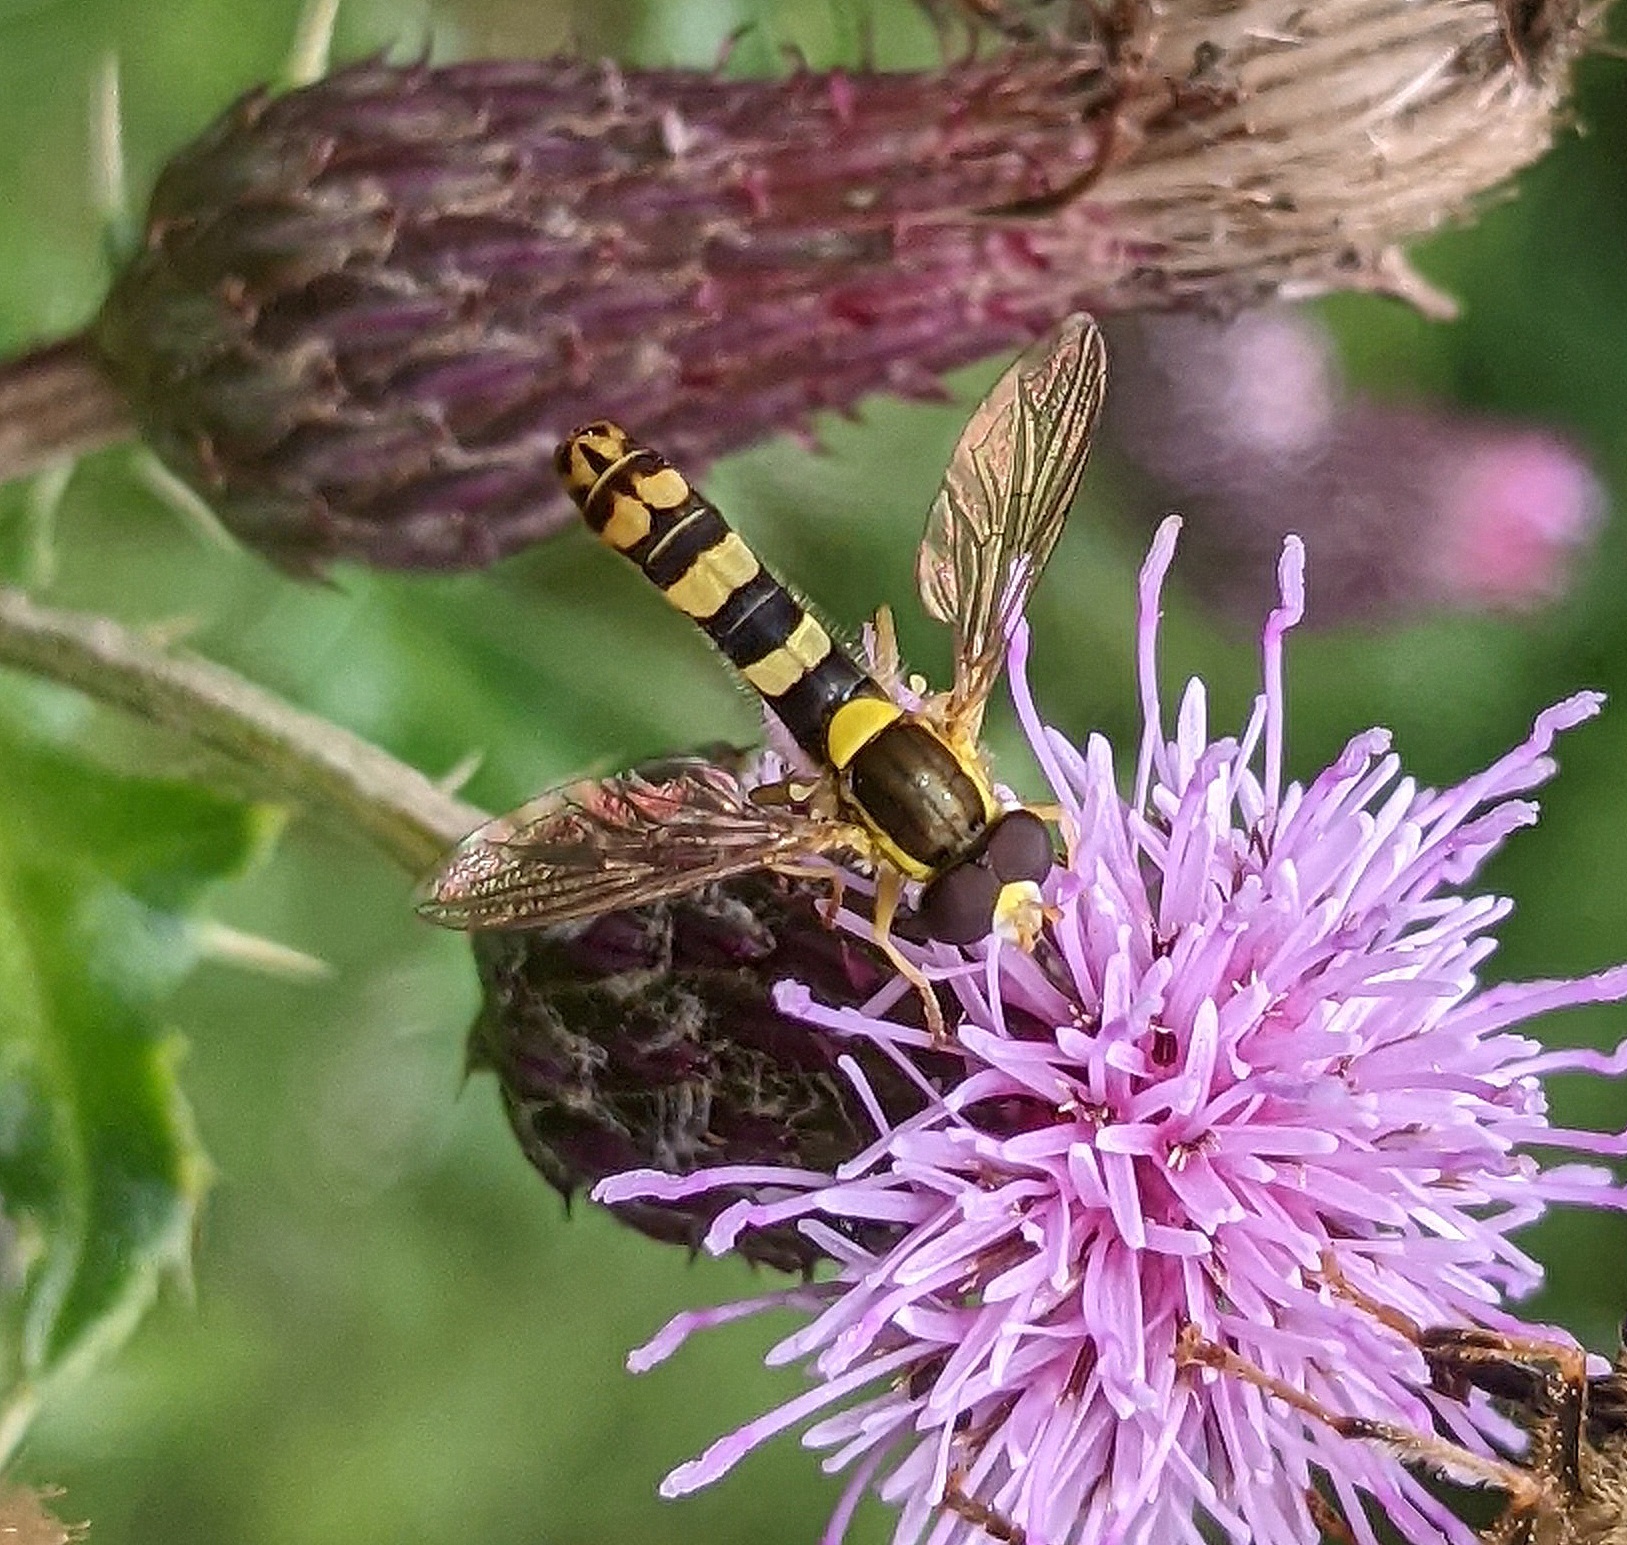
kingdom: Animalia
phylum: Arthropoda
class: Insecta
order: Diptera
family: Syrphidae
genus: Sphaerophoria
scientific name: Sphaerophoria
